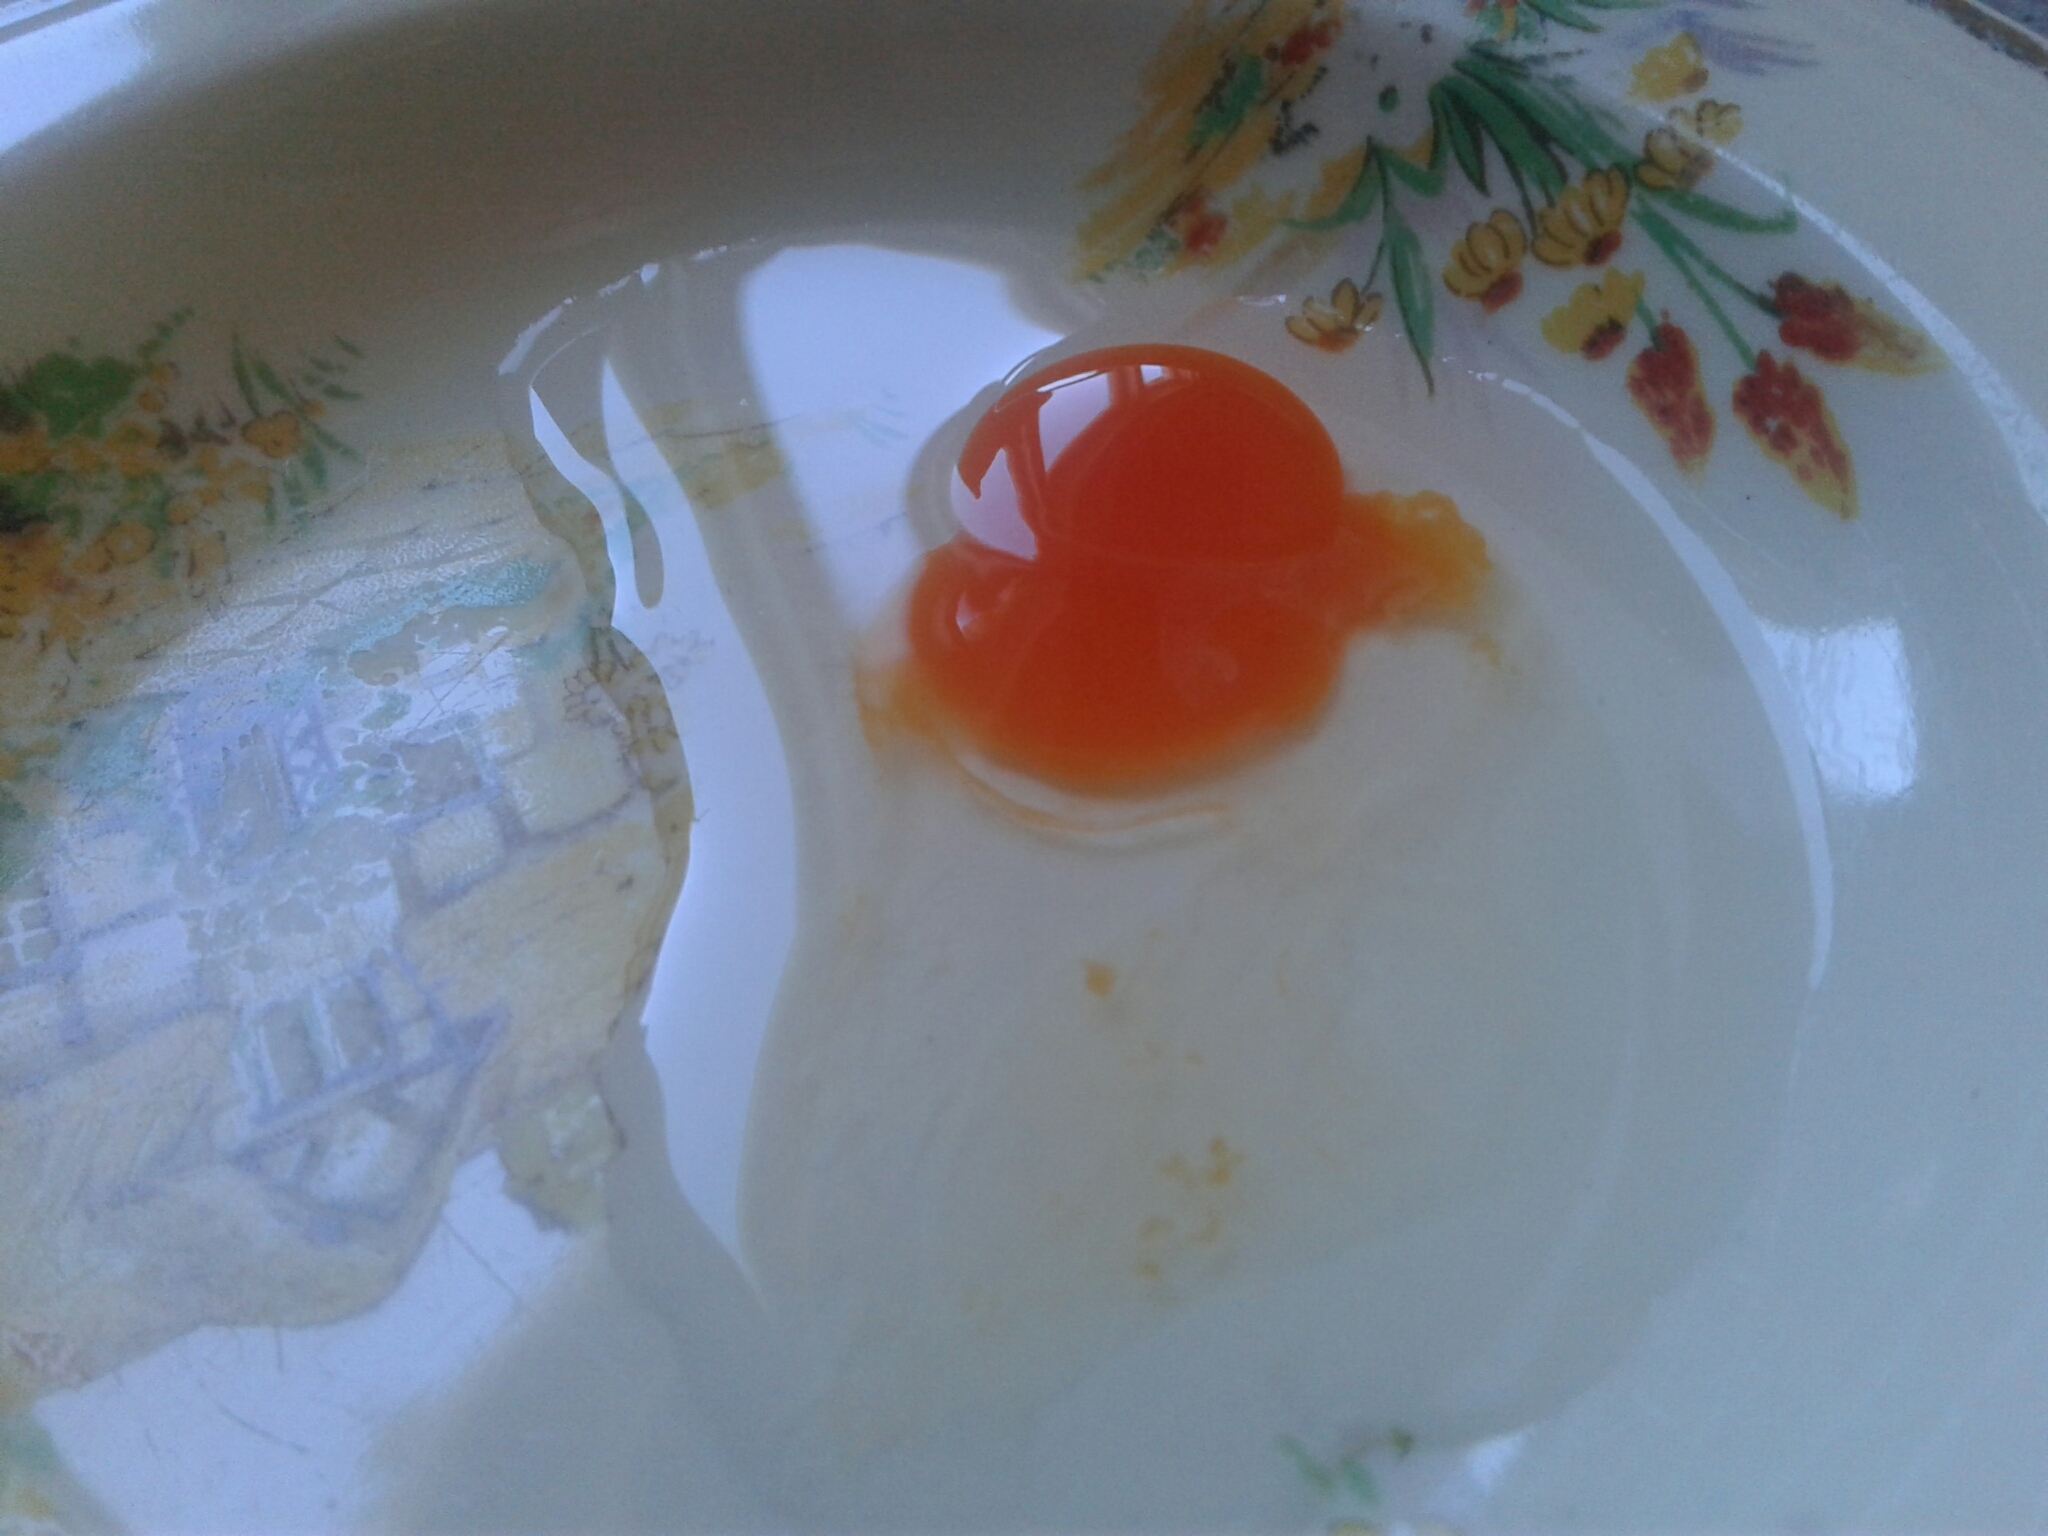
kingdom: Animalia
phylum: Chordata
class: Aves
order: Passeriformes
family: Sturnidae
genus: Sturnus
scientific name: Sturnus vulgaris
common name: Common starling
